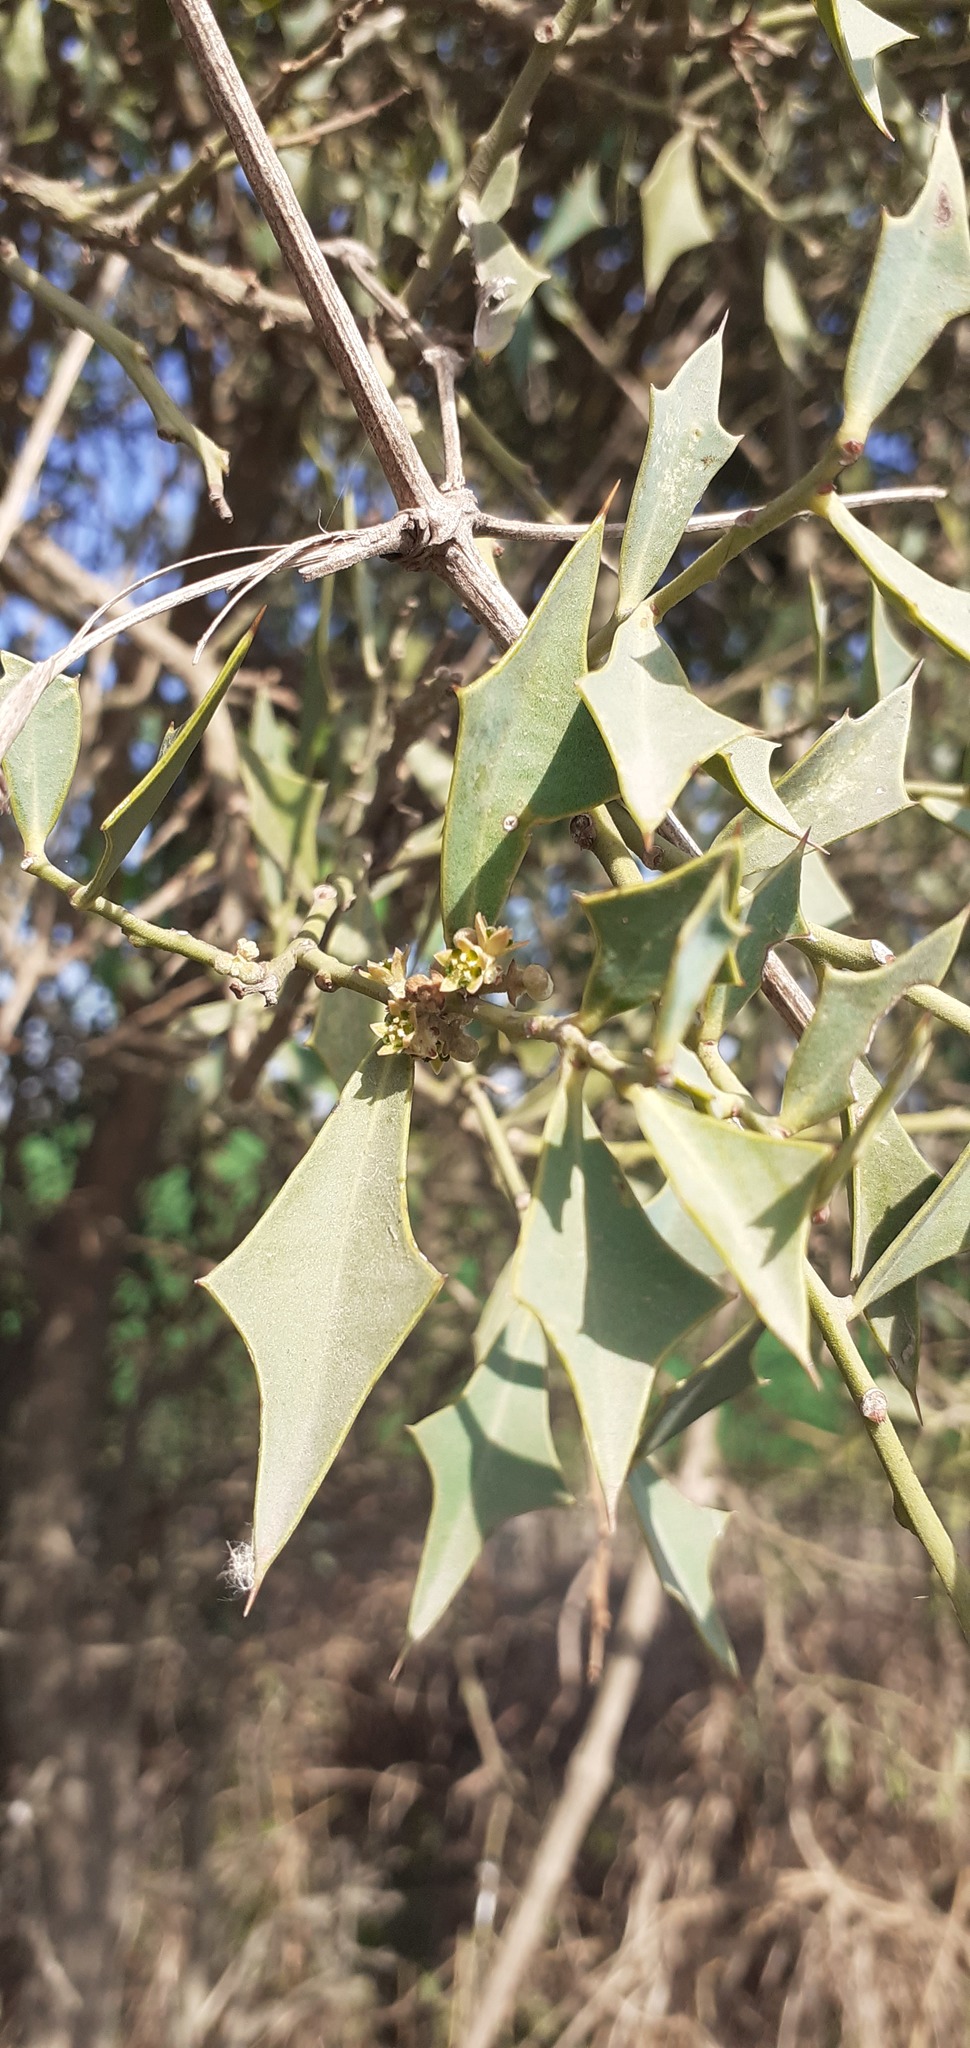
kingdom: Plantae
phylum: Tracheophyta
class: Magnoliopsida
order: Santalales
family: Cervantesiaceae
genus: Jodina
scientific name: Jodina rhombifolia
